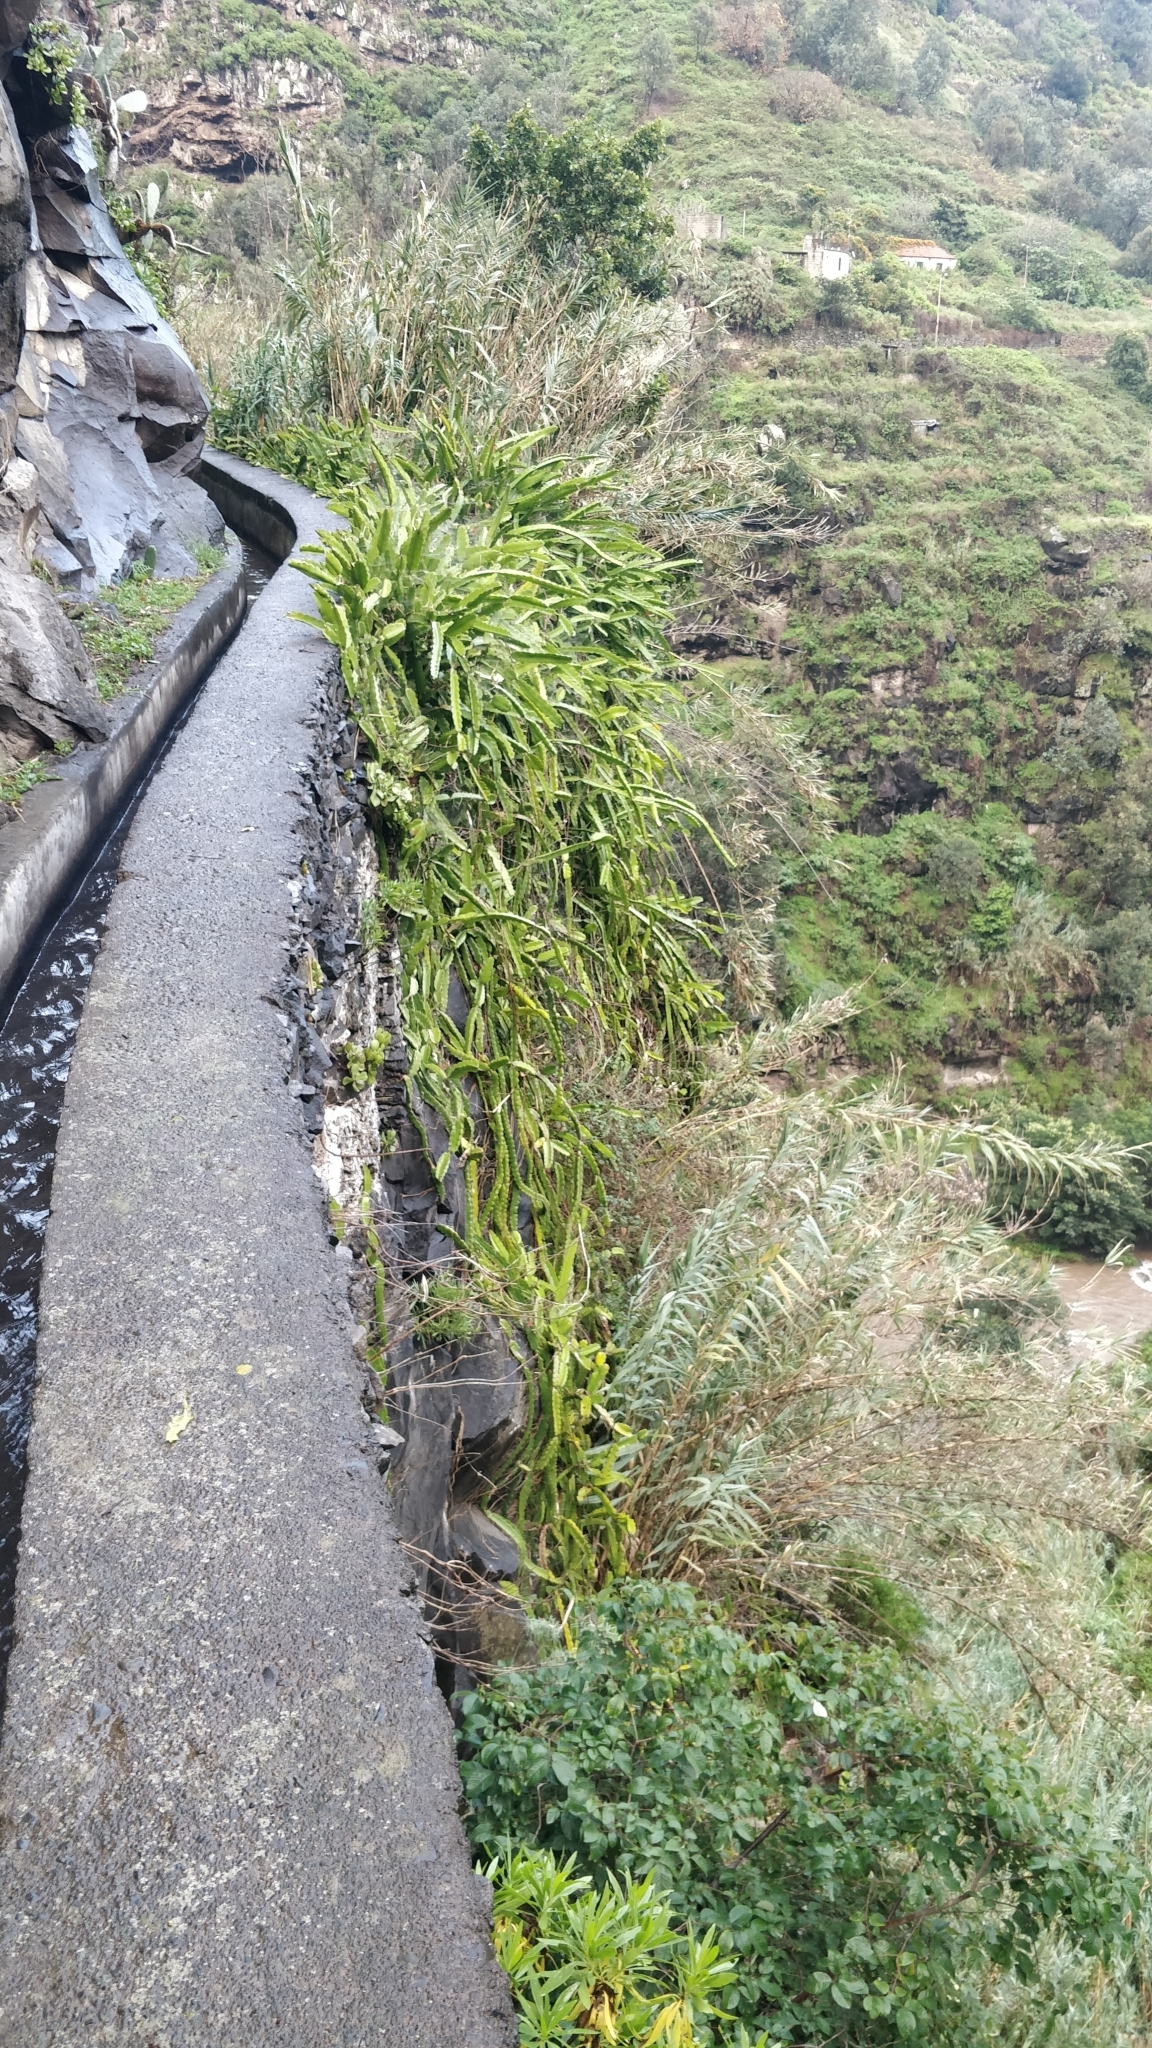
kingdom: Plantae
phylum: Tracheophyta
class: Magnoliopsida
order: Caryophyllales
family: Cactaceae
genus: Selenicereus
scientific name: Selenicereus undatus
